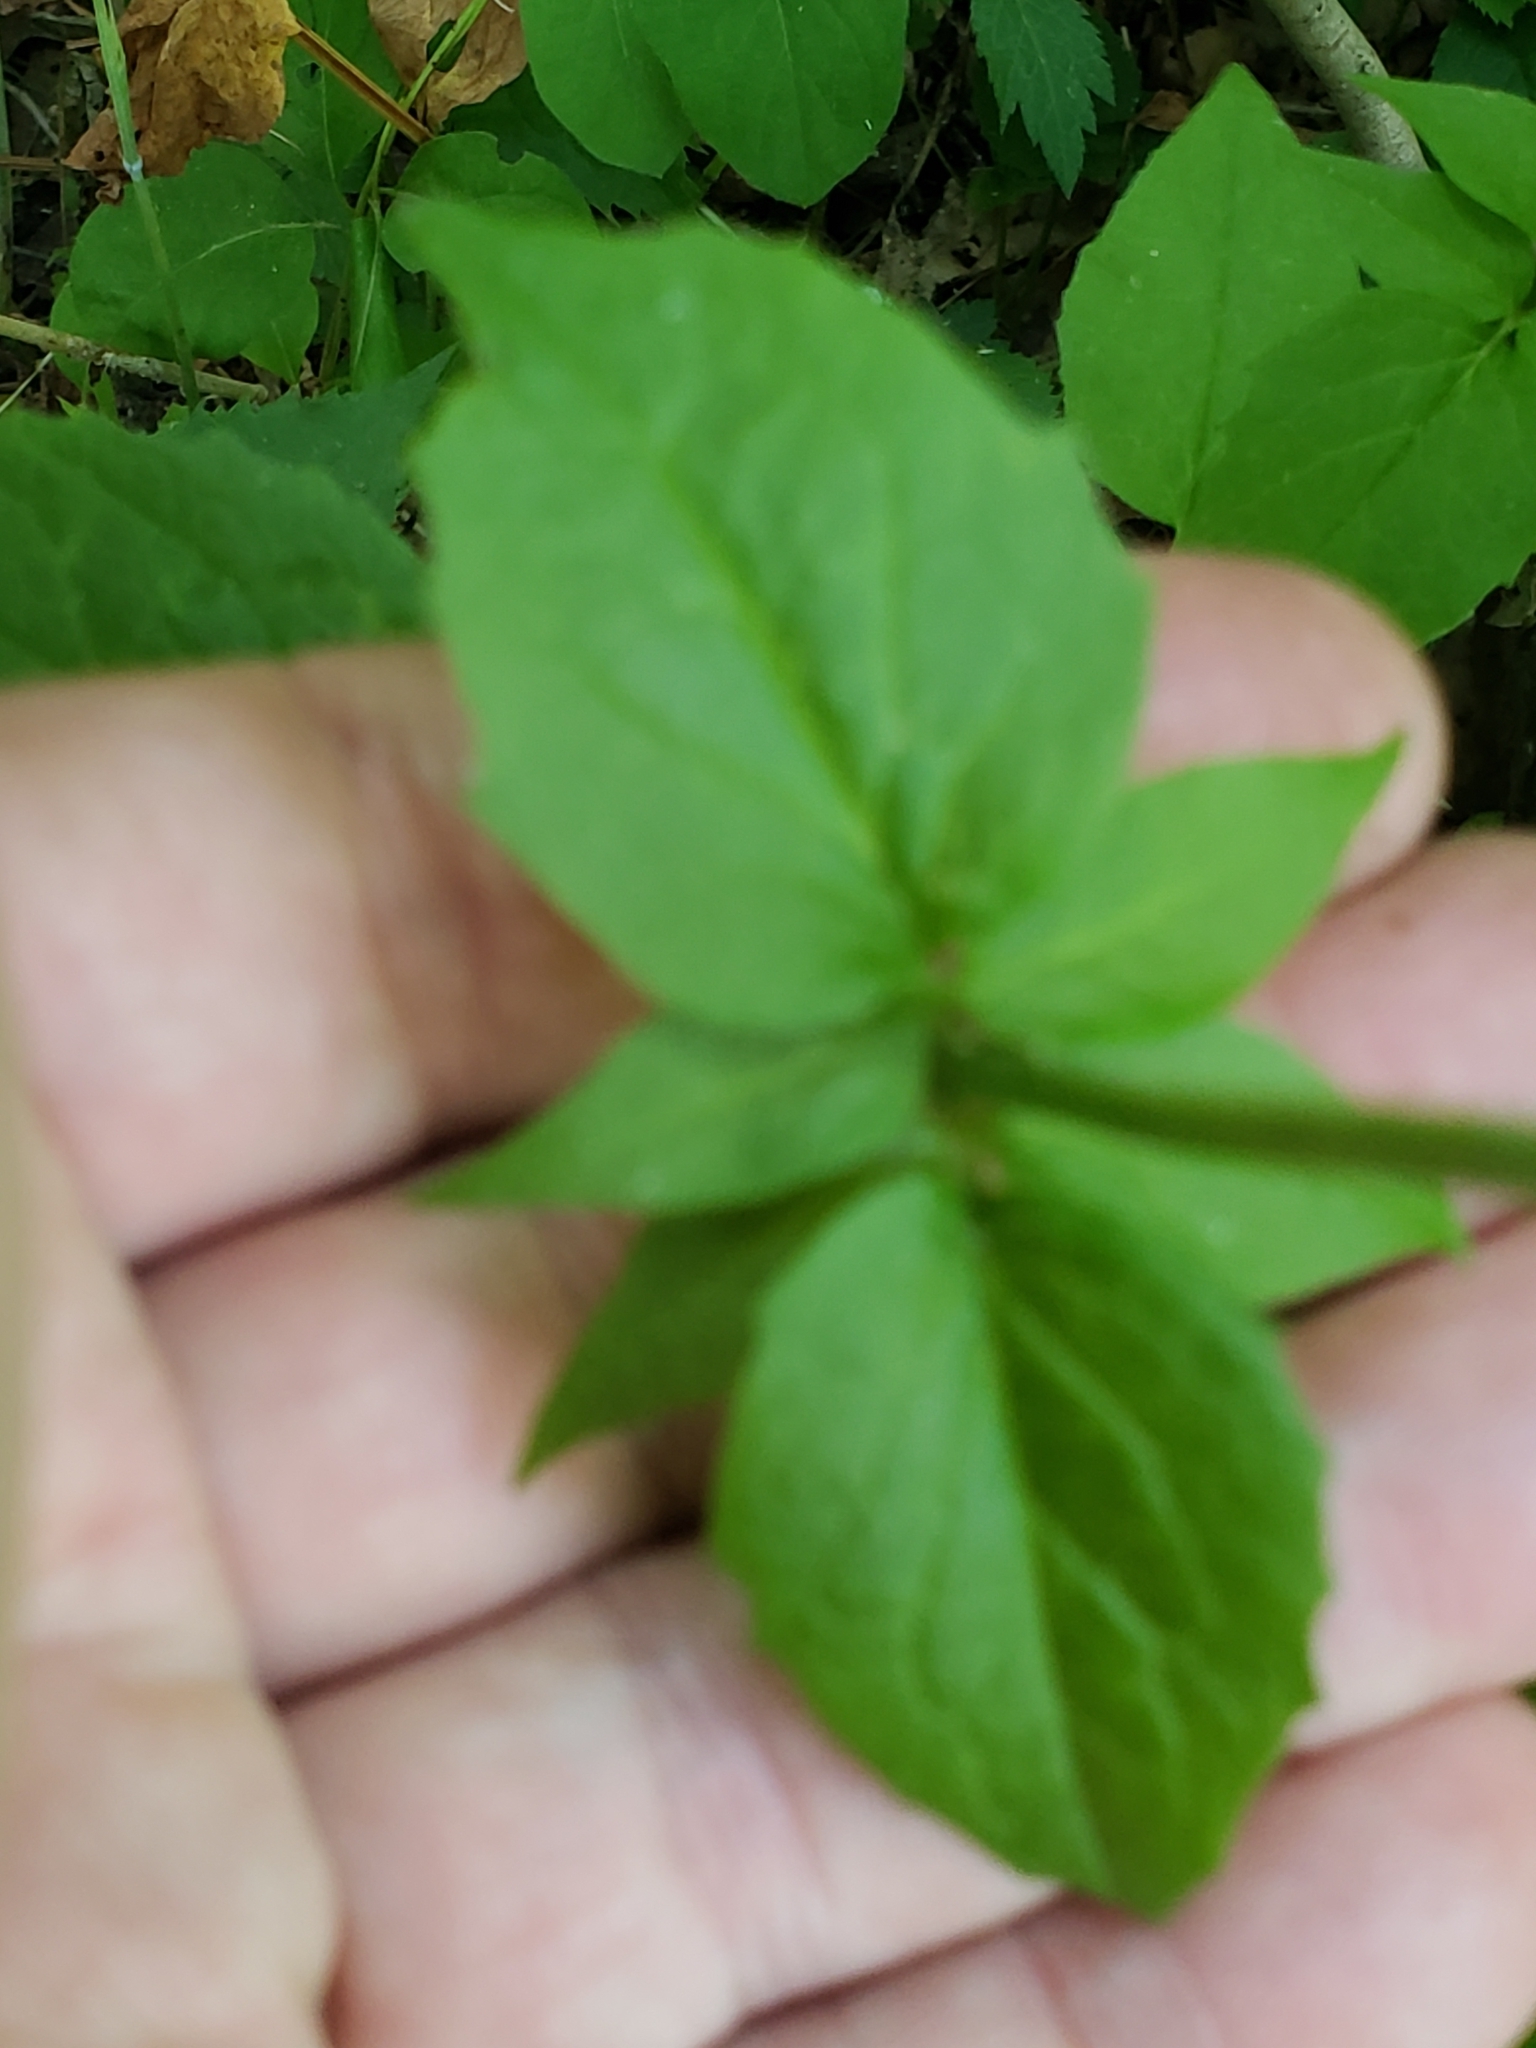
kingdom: Plantae
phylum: Tracheophyta
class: Magnoliopsida
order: Dipsacales
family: Caprifoliaceae
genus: Valeriana
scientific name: Valeriana pauciflora
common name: Long-tube valeriana
